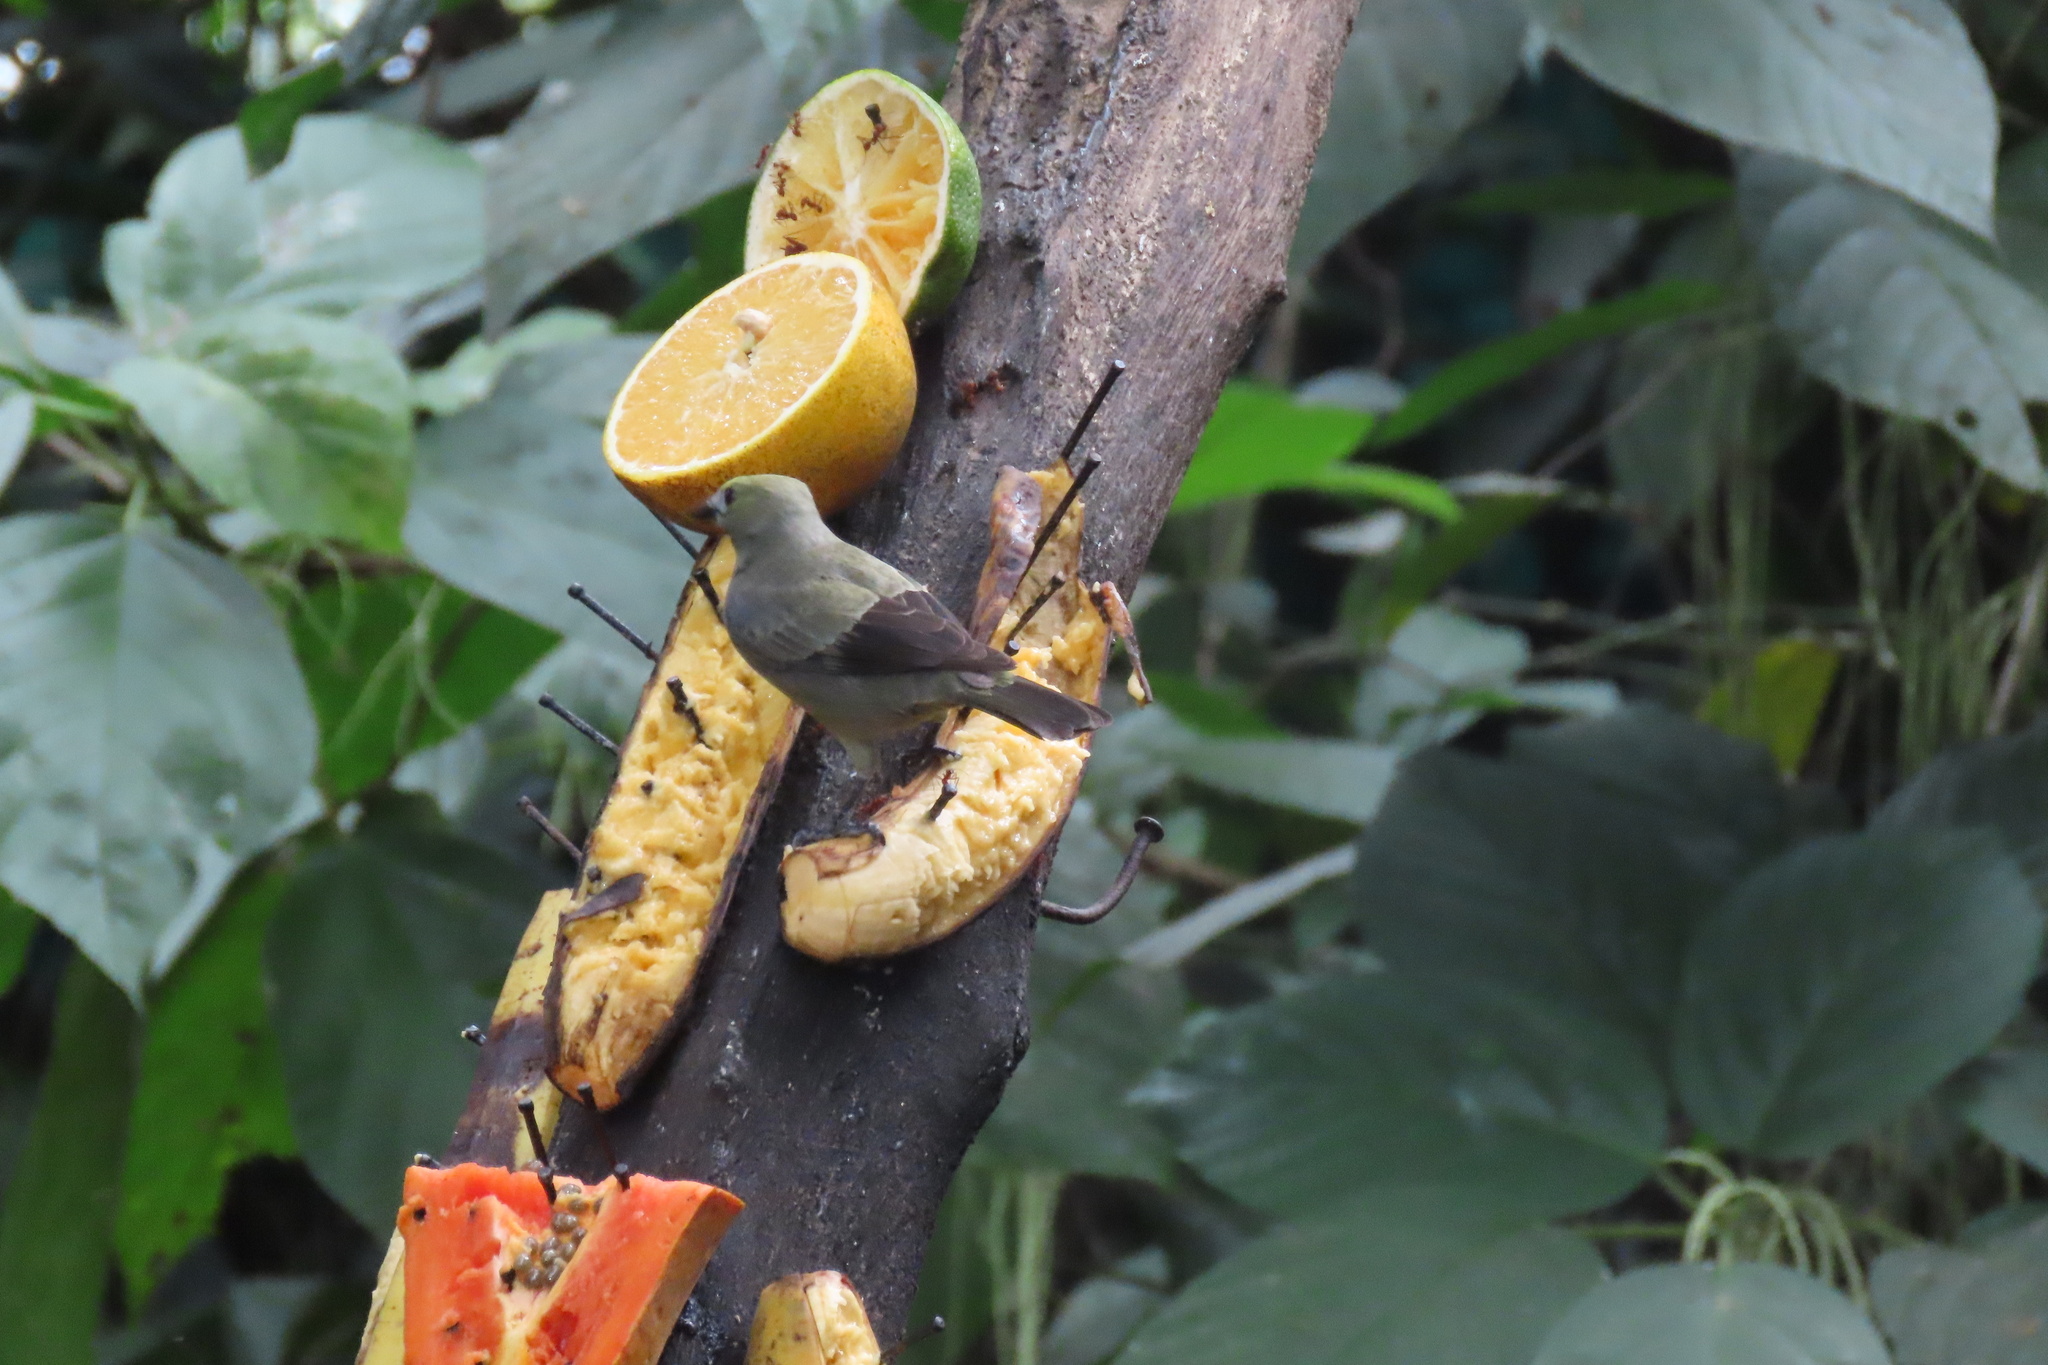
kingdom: Animalia
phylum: Chordata
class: Aves
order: Passeriformes
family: Thraupidae
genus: Thraupis
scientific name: Thraupis palmarum
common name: Palm tanager
